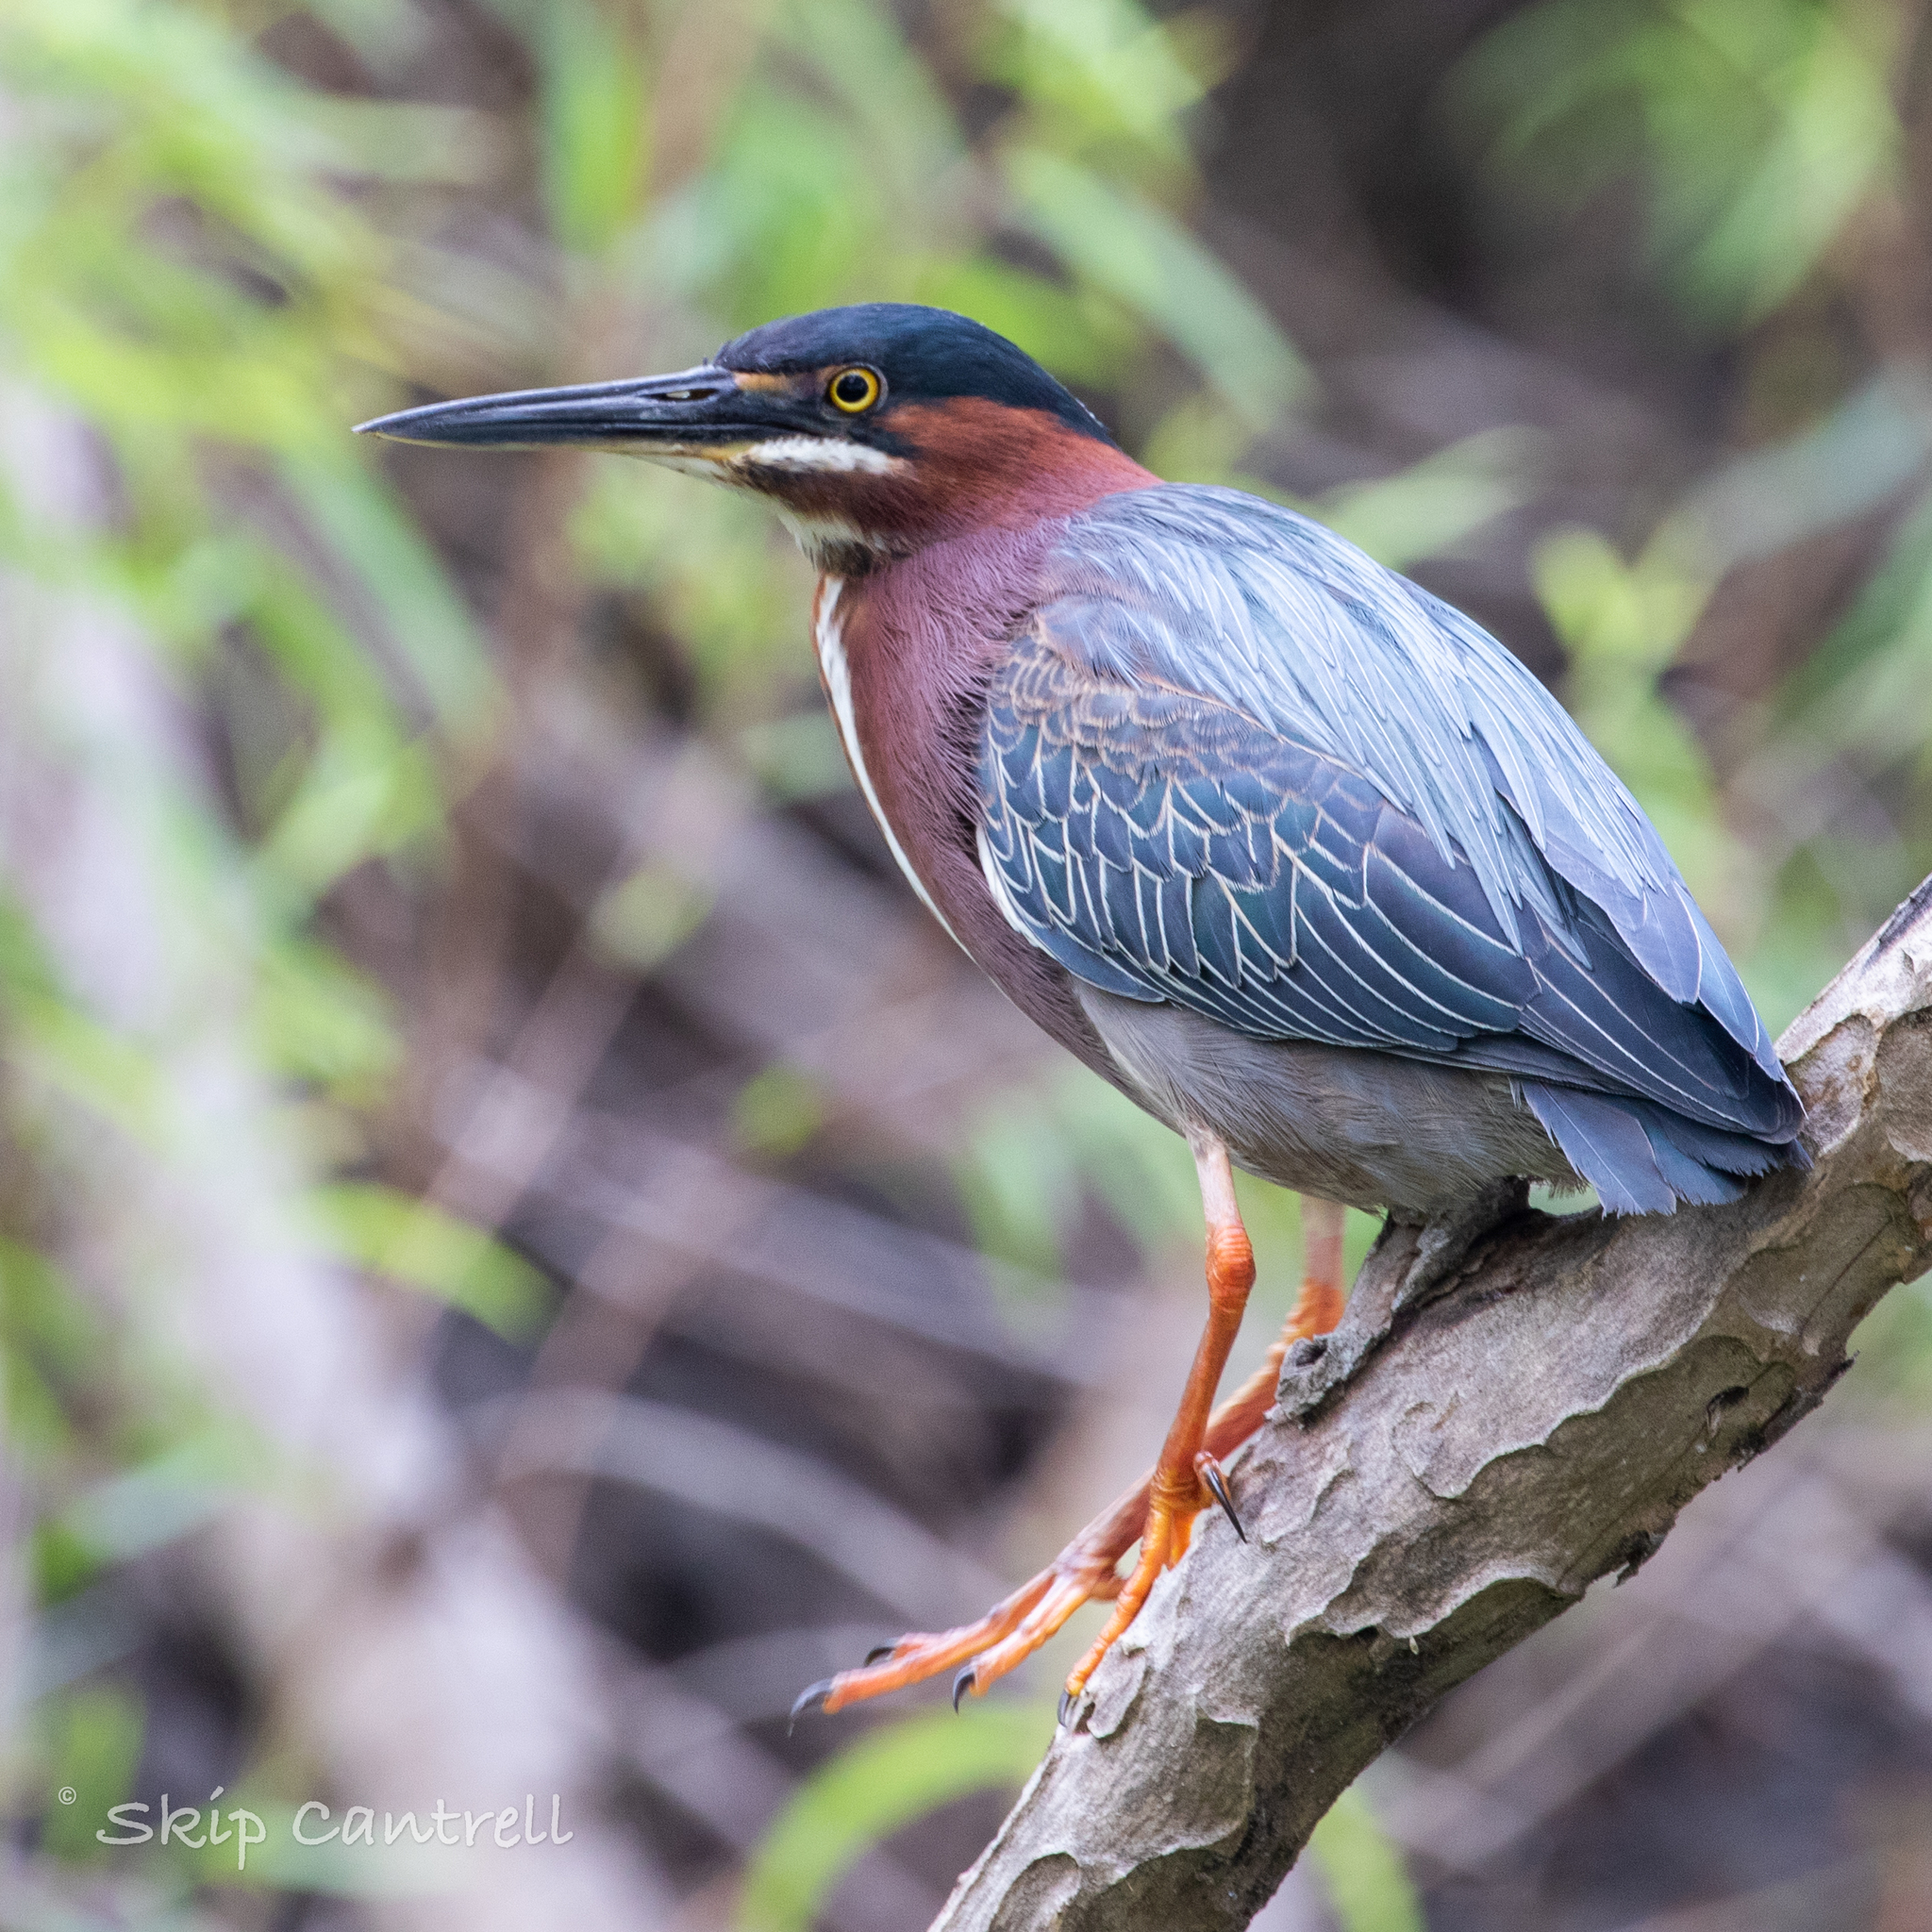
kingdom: Animalia
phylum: Chordata
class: Aves
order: Pelecaniformes
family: Ardeidae
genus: Butorides
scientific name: Butorides virescens
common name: Green heron
